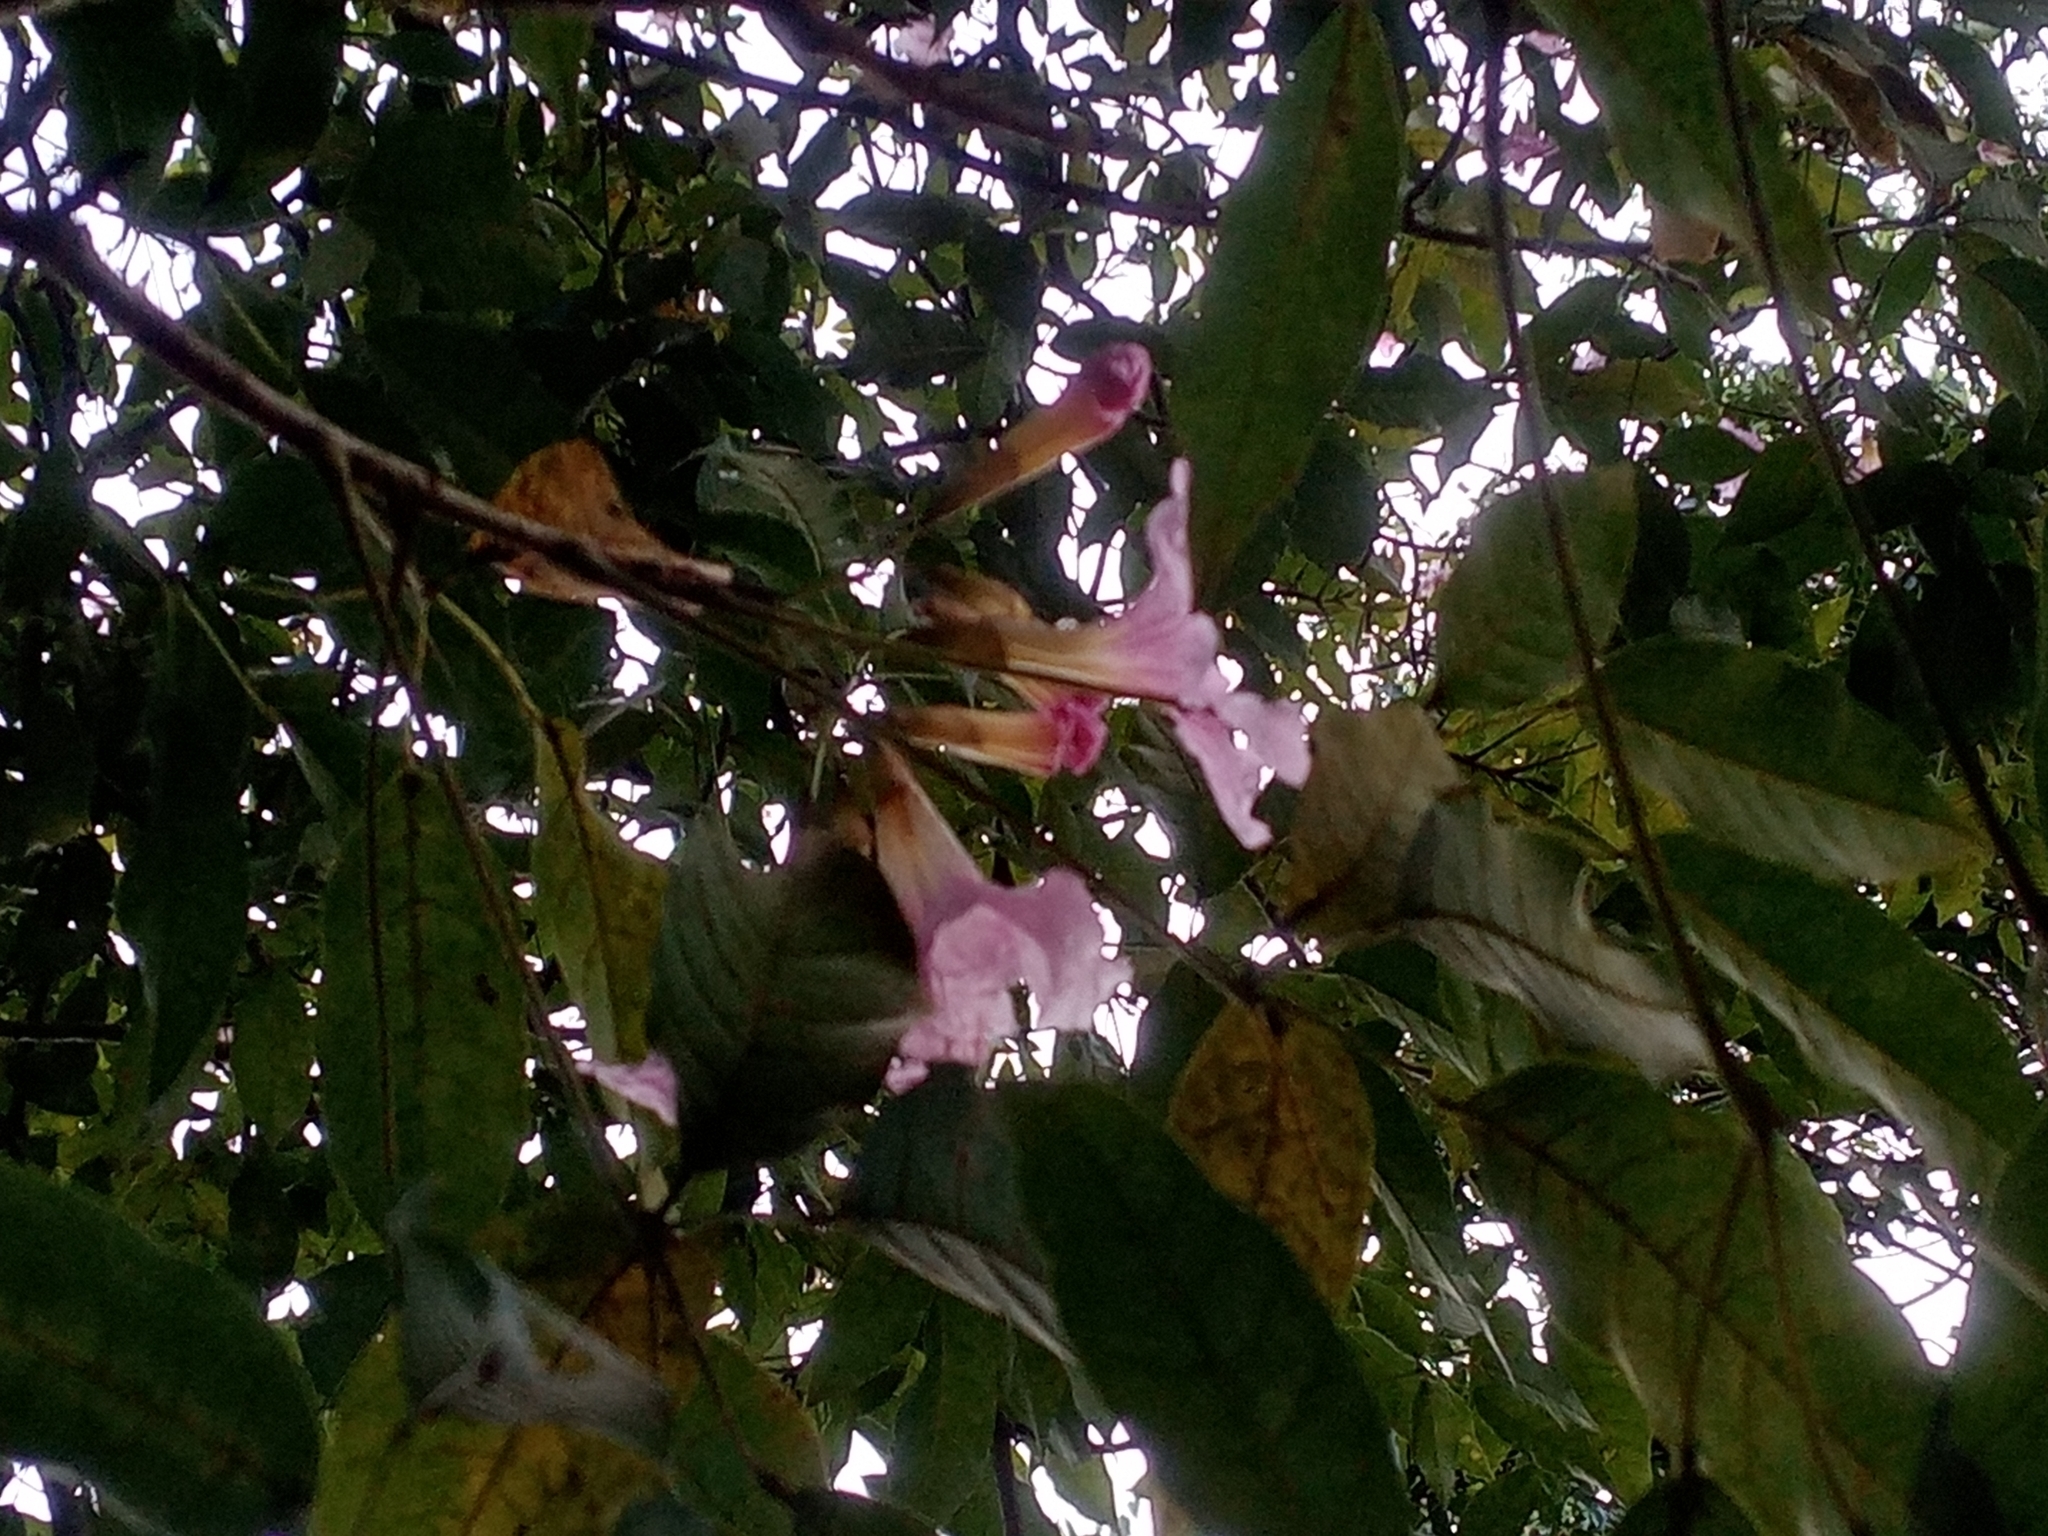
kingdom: Plantae
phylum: Tracheophyta
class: Magnoliopsida
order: Lamiales
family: Bignoniaceae
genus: Tabebuia
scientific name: Tabebuia rosea
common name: Pink poui
